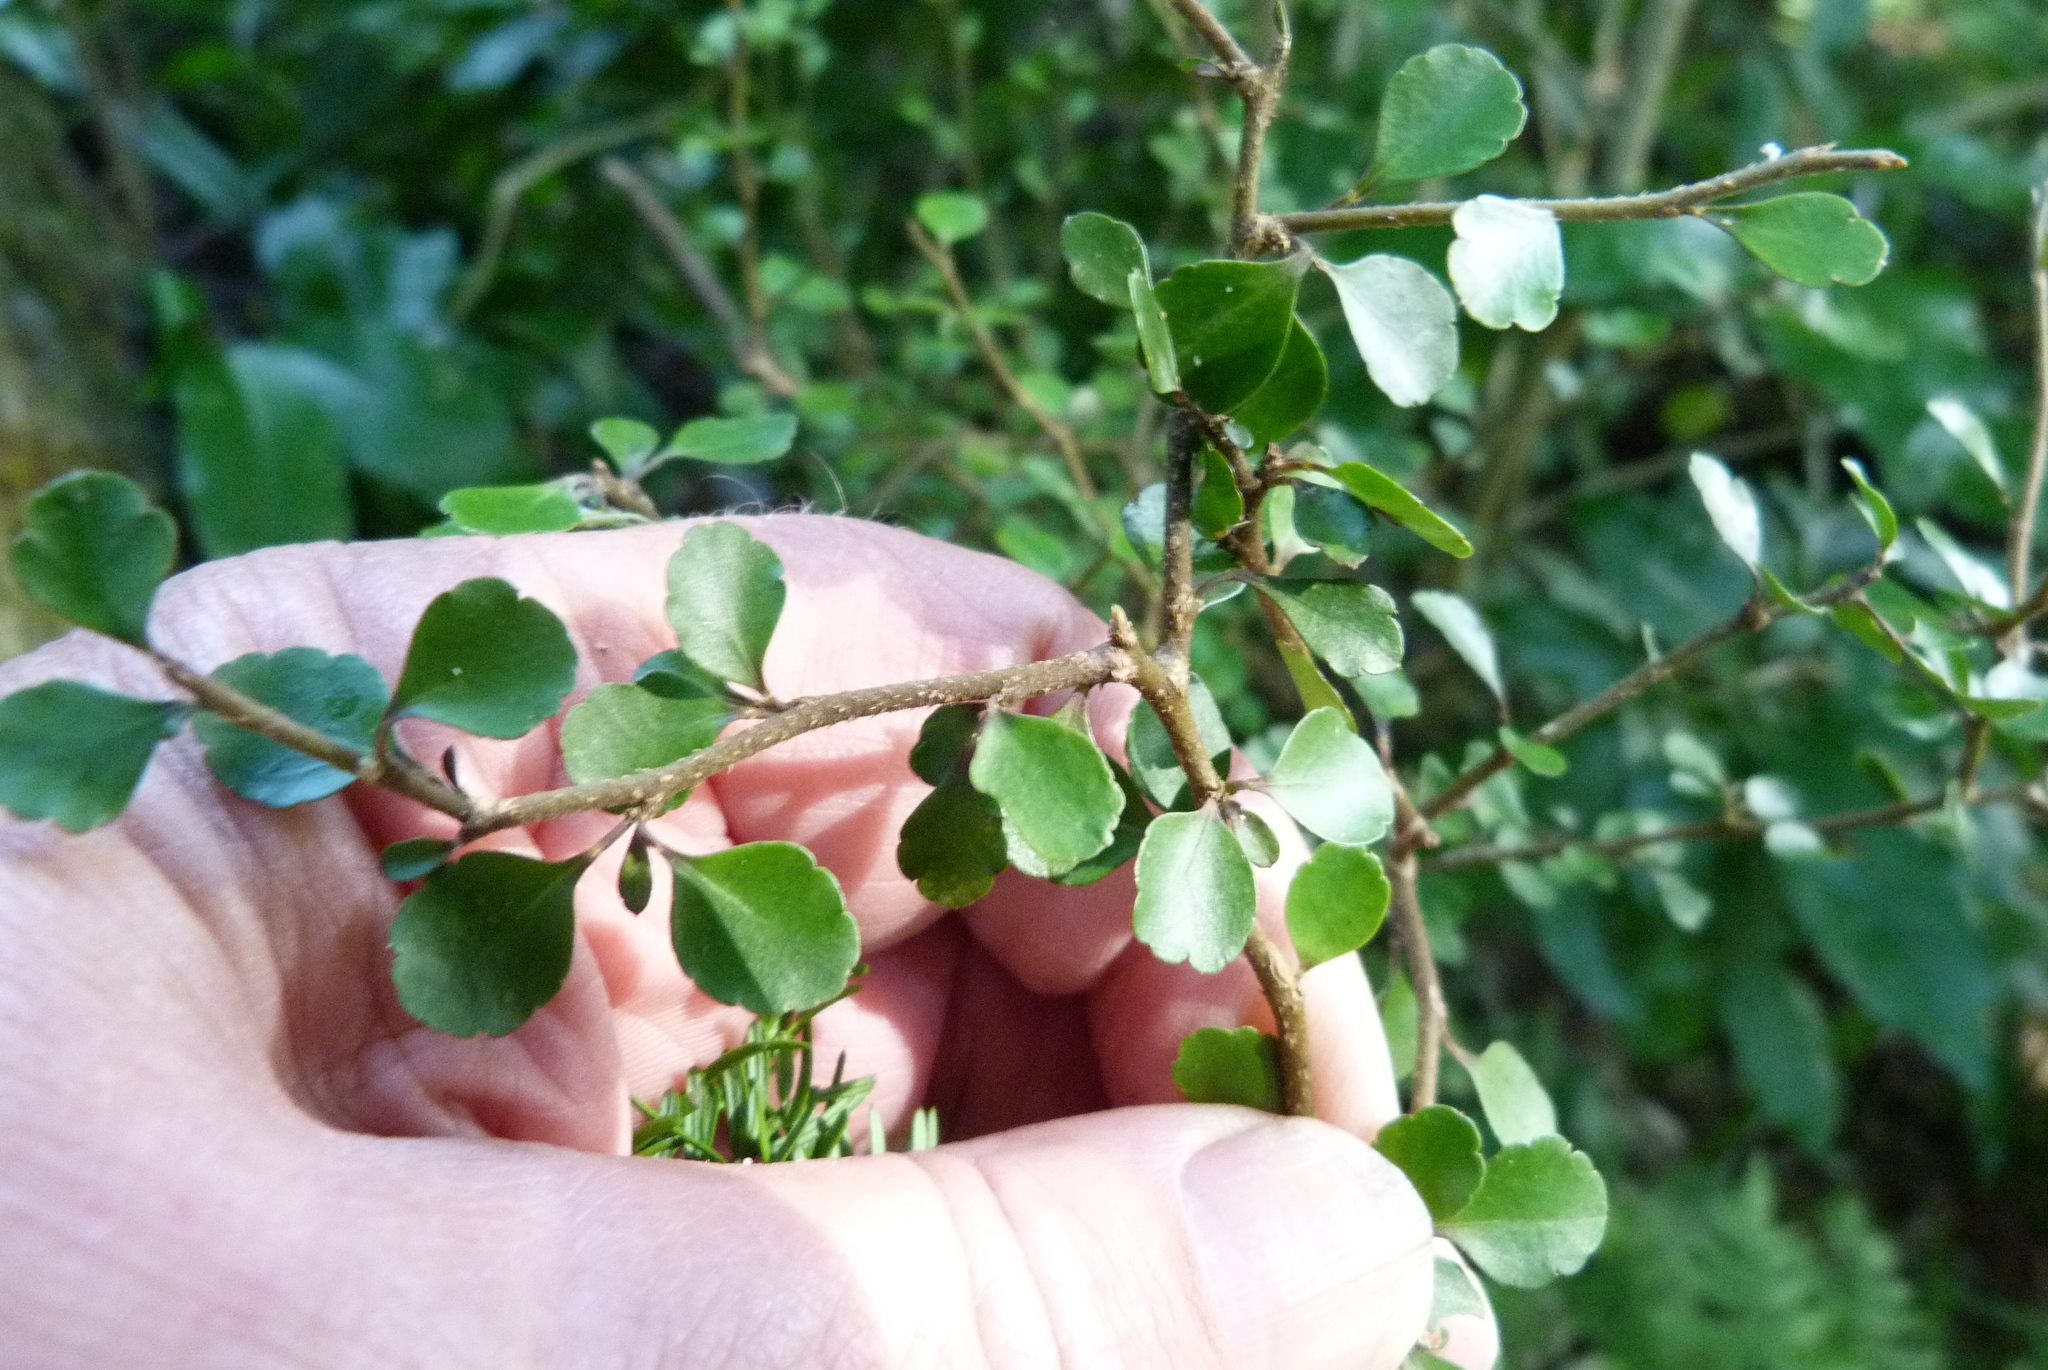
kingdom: Plantae
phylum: Tracheophyta
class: Magnoliopsida
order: Apiales
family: Araliaceae
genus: Raukaua
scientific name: Raukaua anomalus
